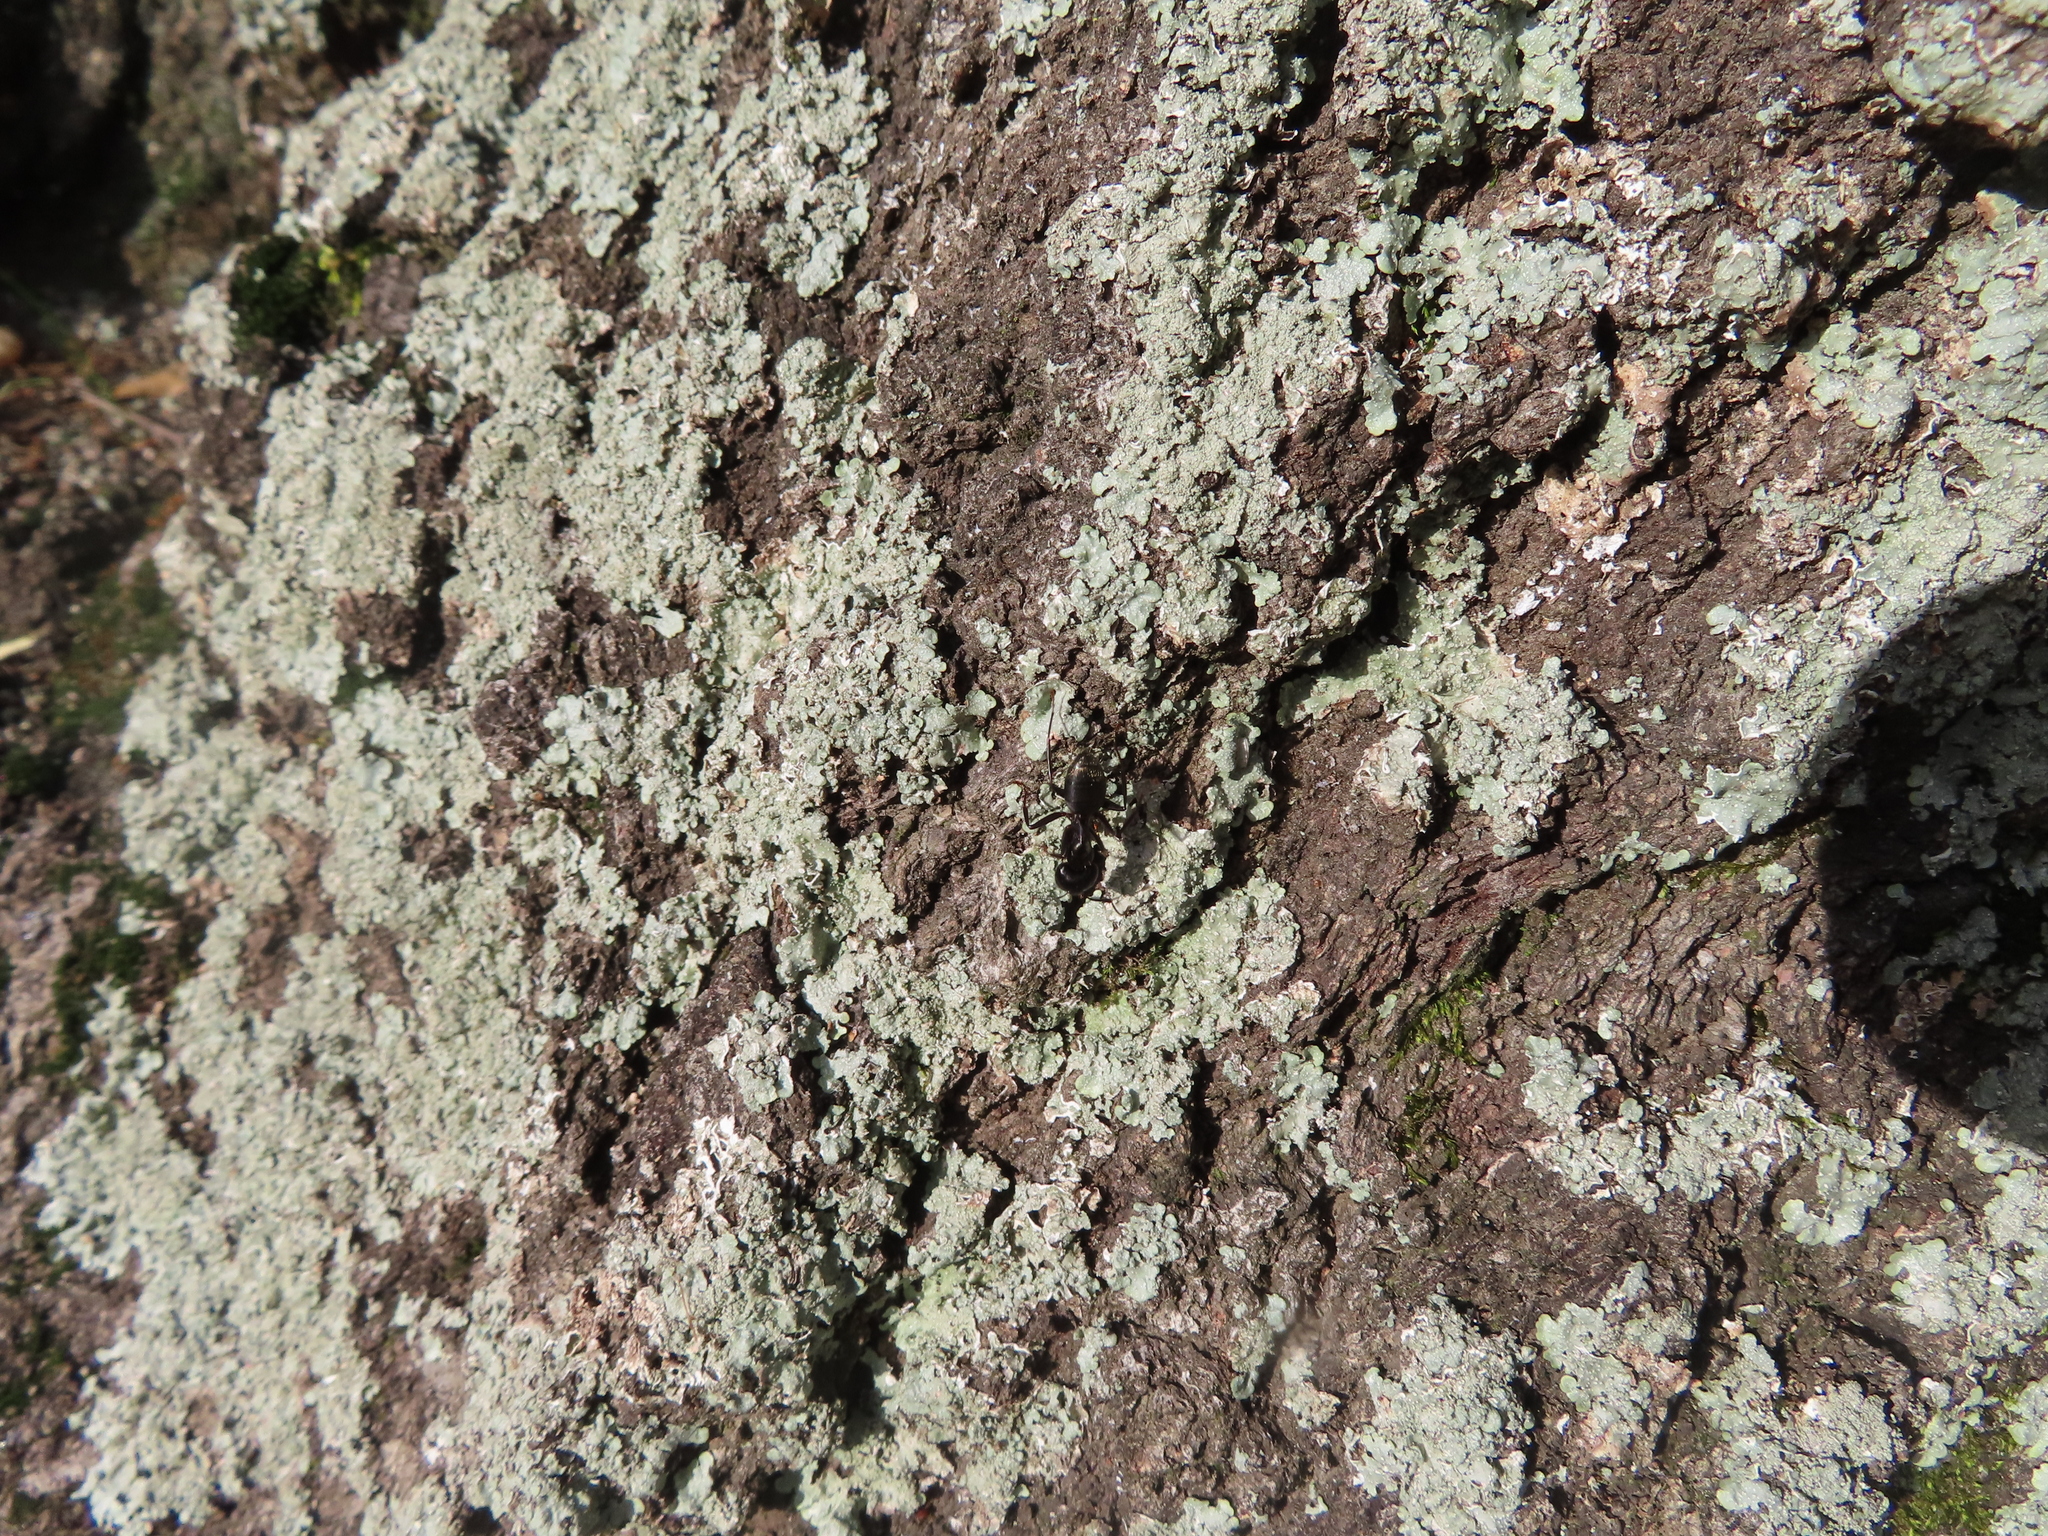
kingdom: Animalia
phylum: Arthropoda
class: Insecta
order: Hymenoptera
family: Formicidae
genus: Camponotus
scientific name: Camponotus pennsylvanicus
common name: Black carpenter ant
